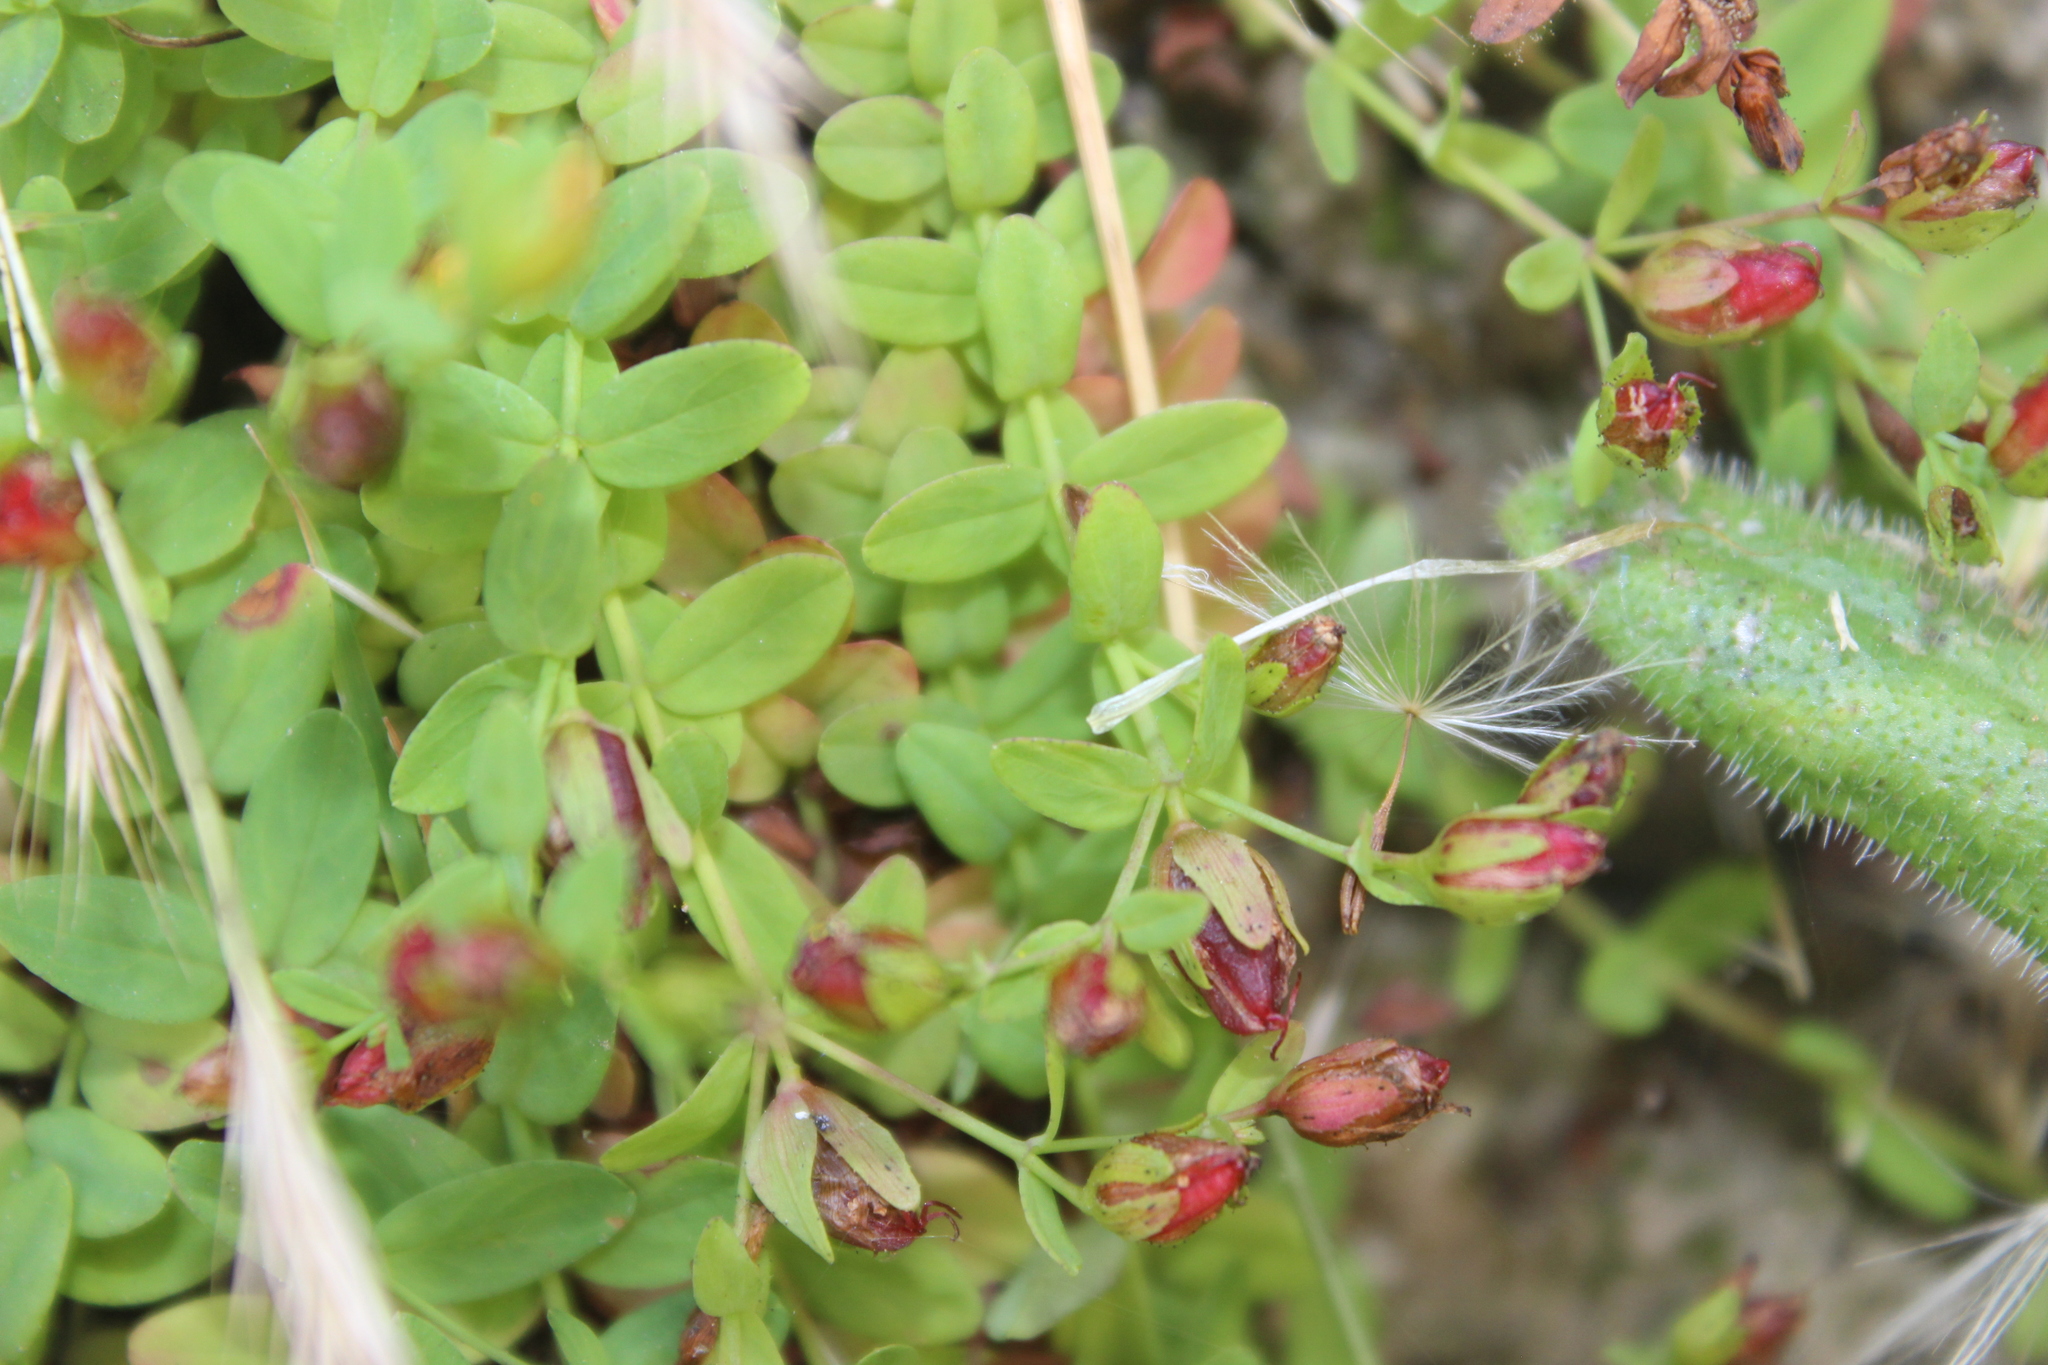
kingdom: Plantae
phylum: Tracheophyta
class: Magnoliopsida
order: Malpighiales
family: Hypericaceae
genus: Hypericum
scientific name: Hypericum humifusum
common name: Trailing st. john's-wort
